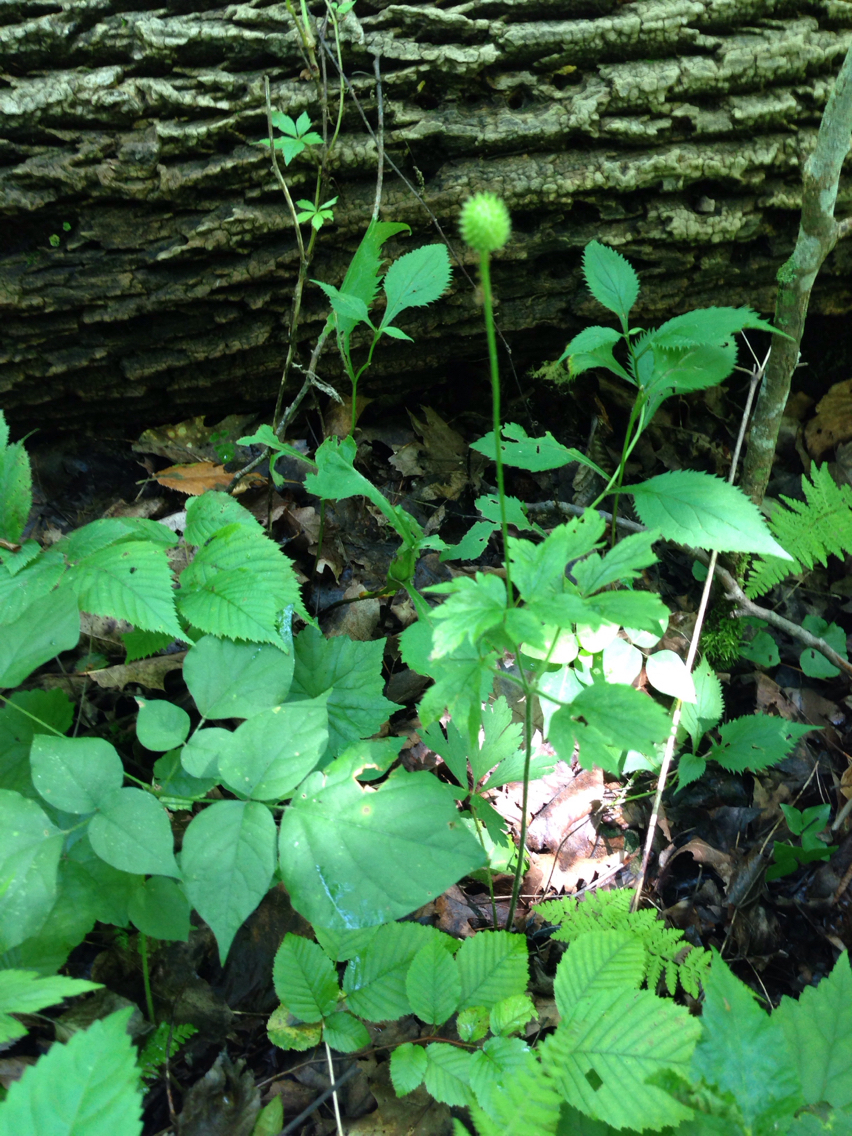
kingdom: Plantae
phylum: Tracheophyta
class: Magnoliopsida
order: Ranunculales
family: Ranunculaceae
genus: Anemone
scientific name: Anemone virginiana
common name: Tall anemone
